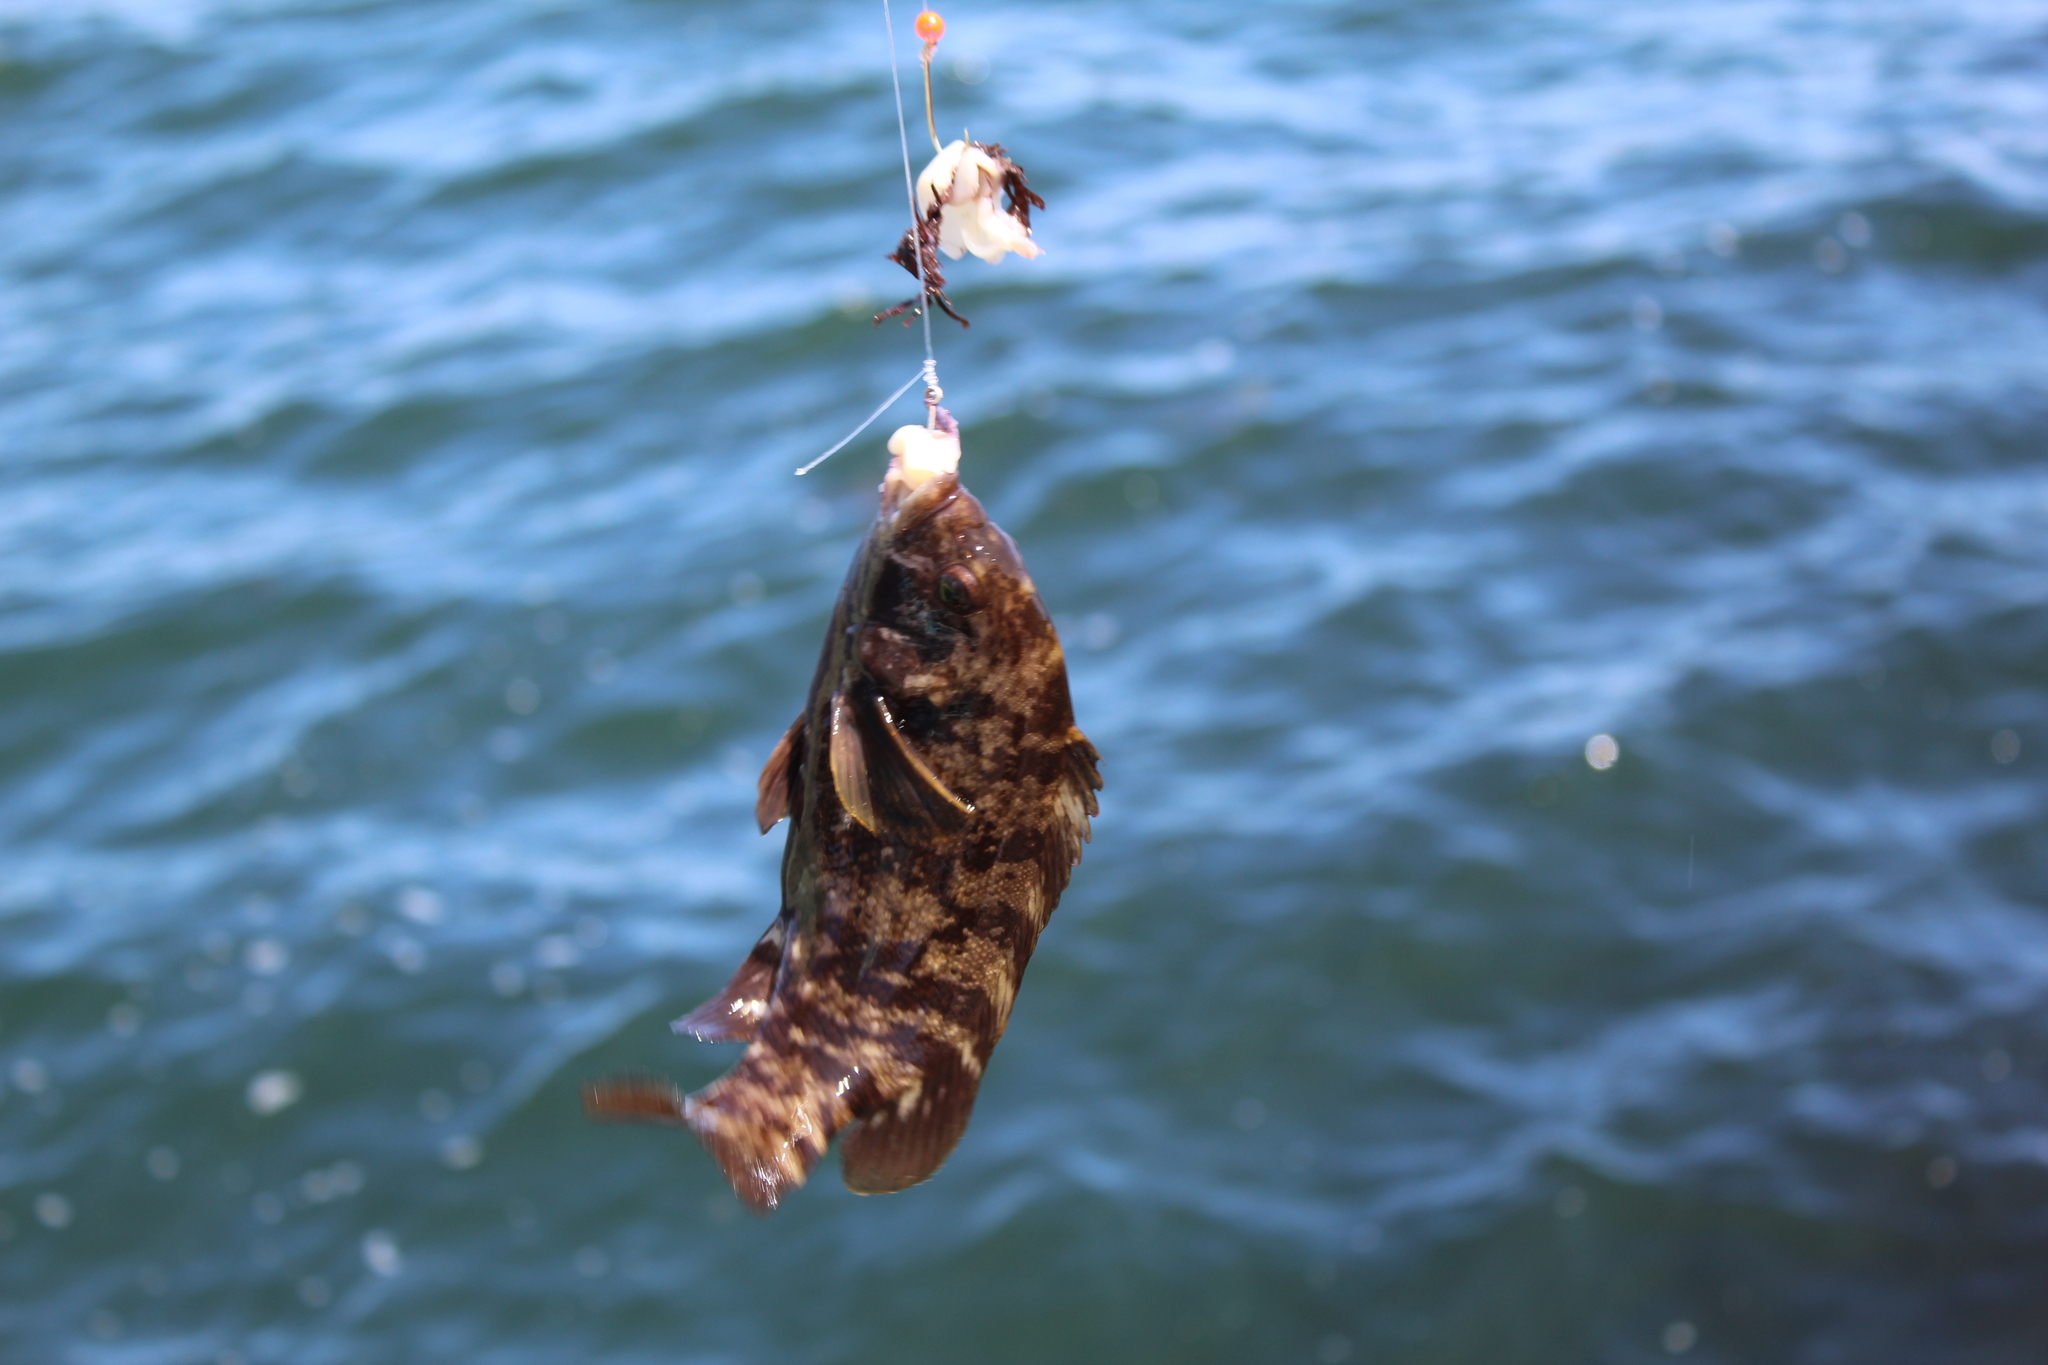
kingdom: Animalia
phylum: Chordata
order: Perciformes
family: Labridae
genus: Tautoga
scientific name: Tautoga onitis
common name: Tautog
